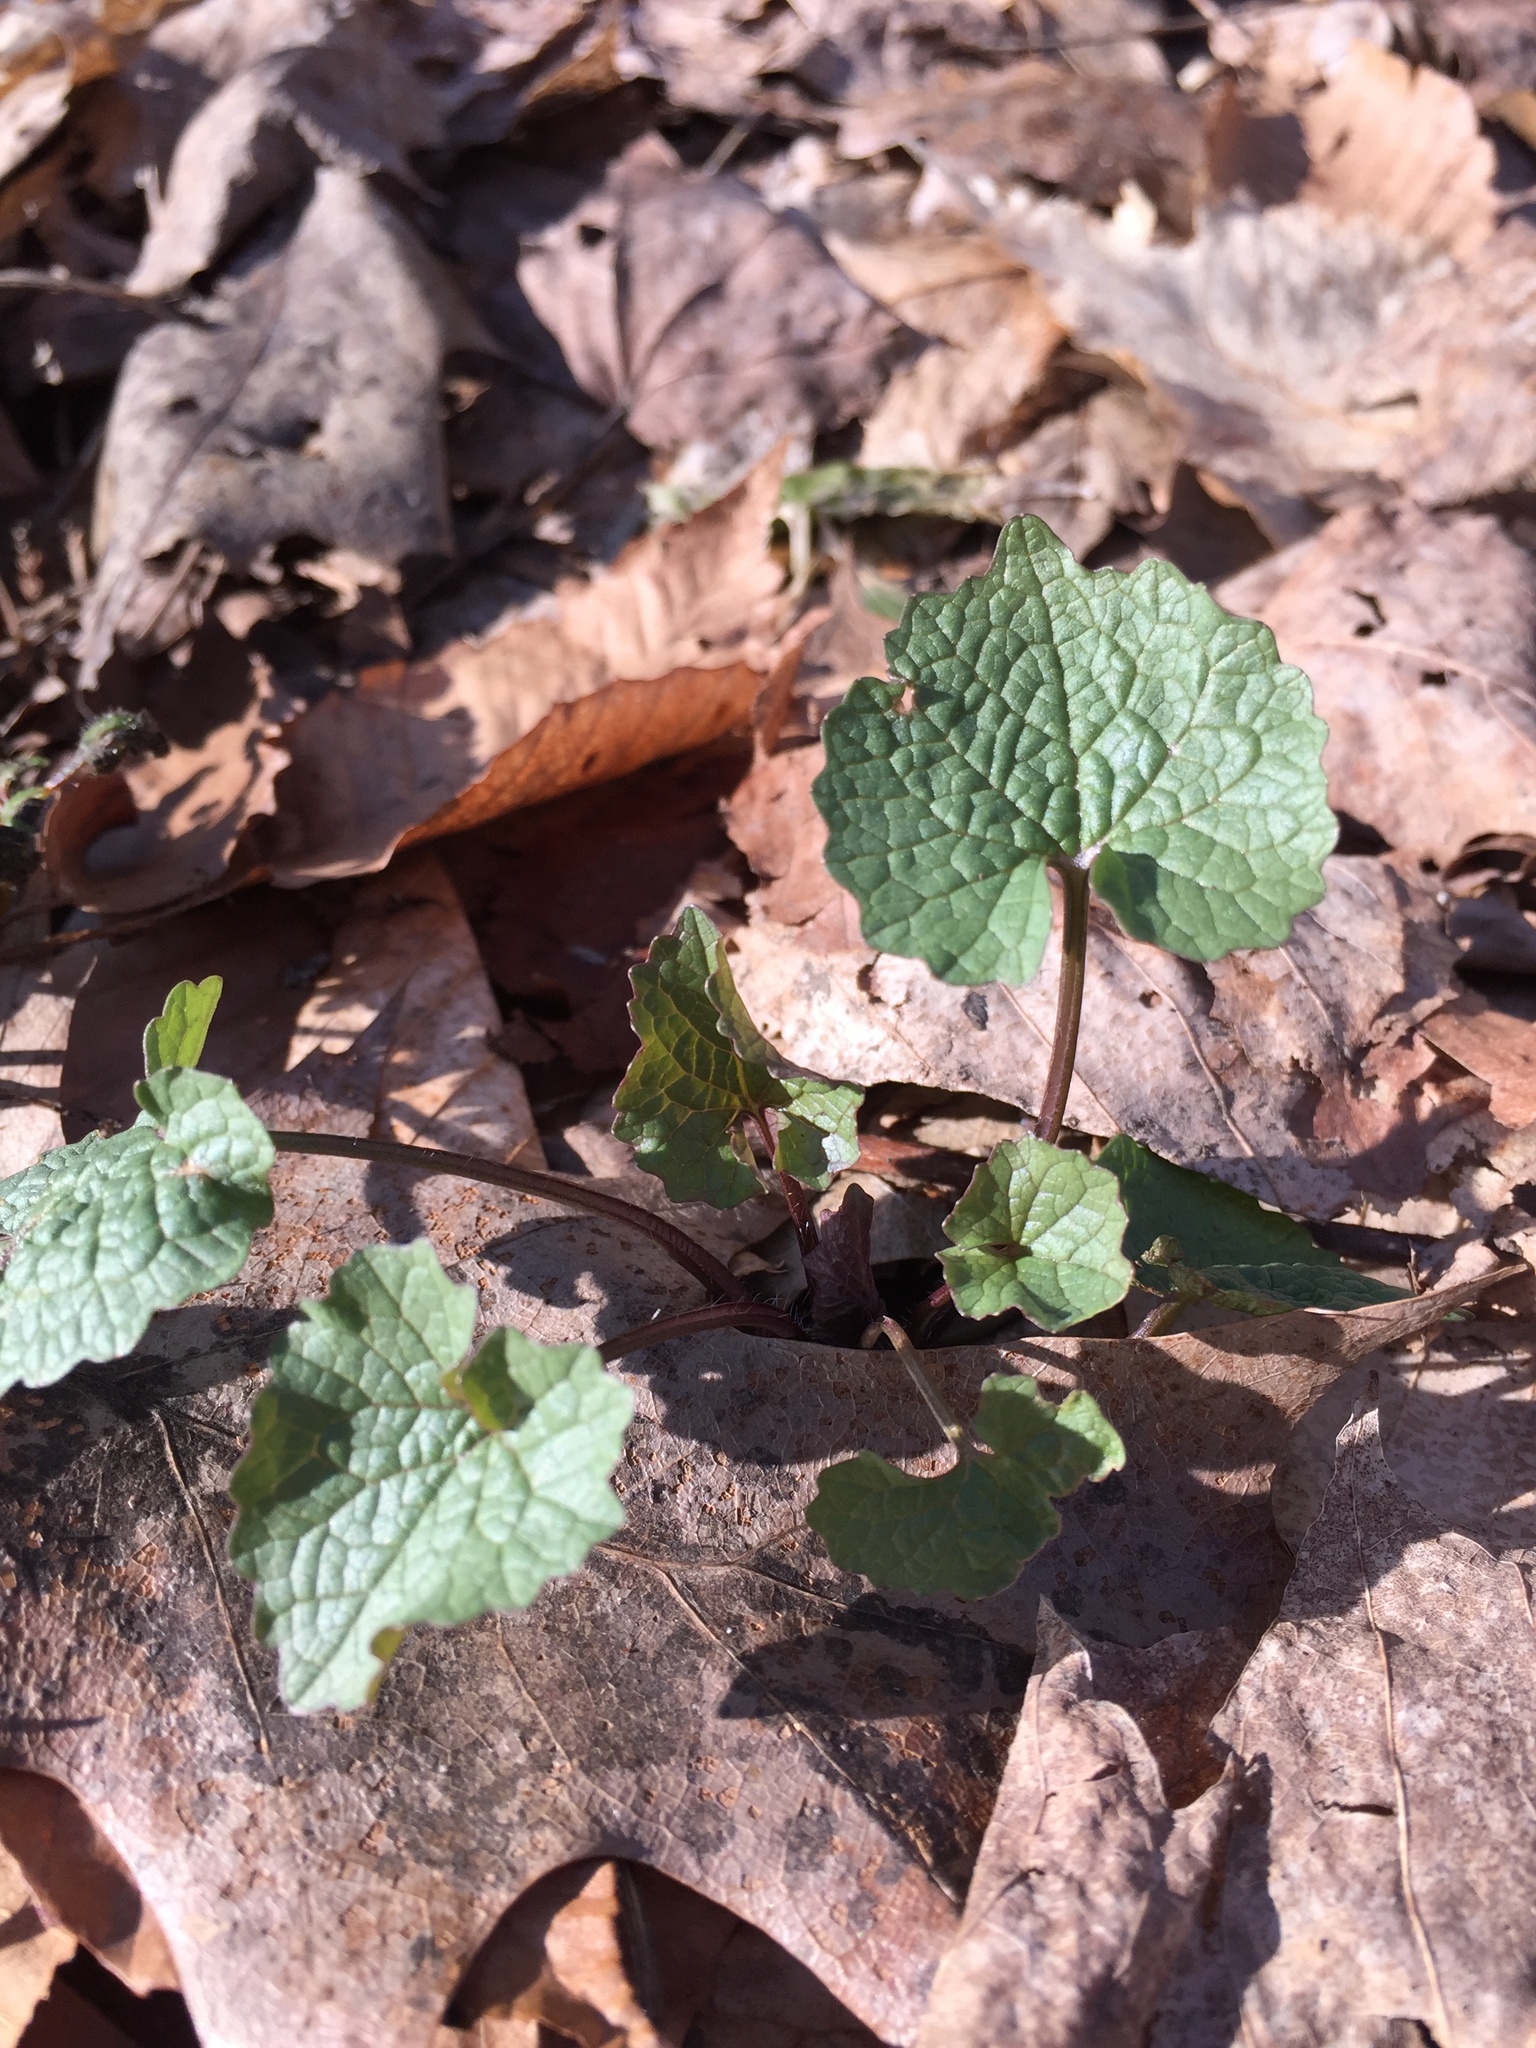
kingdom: Plantae
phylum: Tracheophyta
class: Magnoliopsida
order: Brassicales
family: Brassicaceae
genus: Alliaria
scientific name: Alliaria petiolata
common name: Garlic mustard
